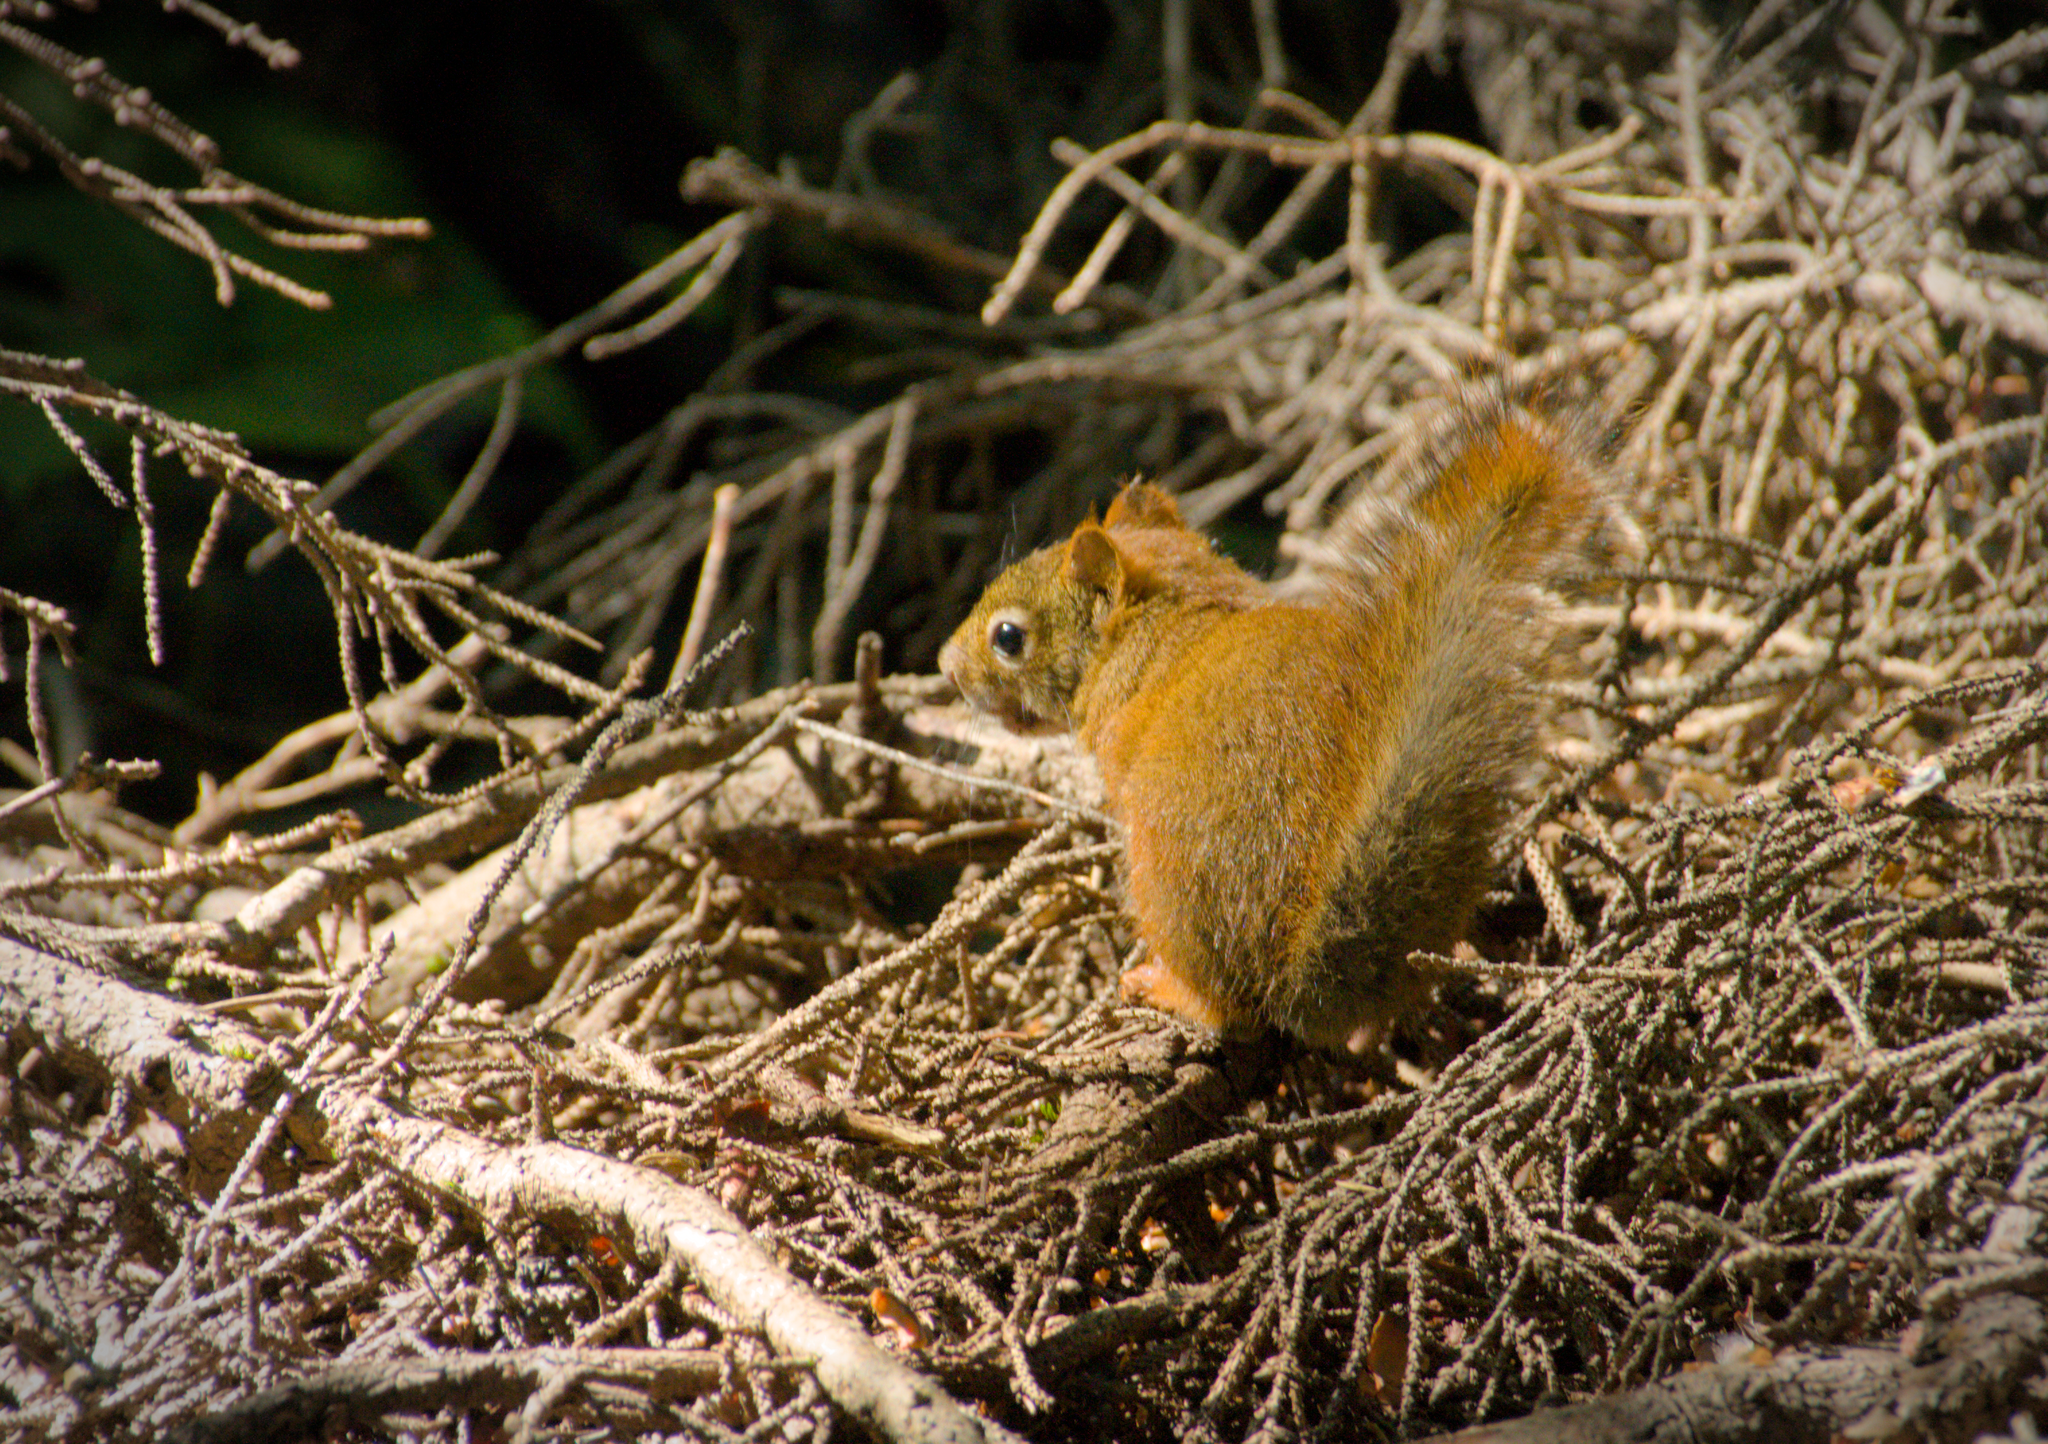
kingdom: Animalia
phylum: Chordata
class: Mammalia
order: Rodentia
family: Sciuridae
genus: Tamiasciurus
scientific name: Tamiasciurus hudsonicus
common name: Red squirrel
